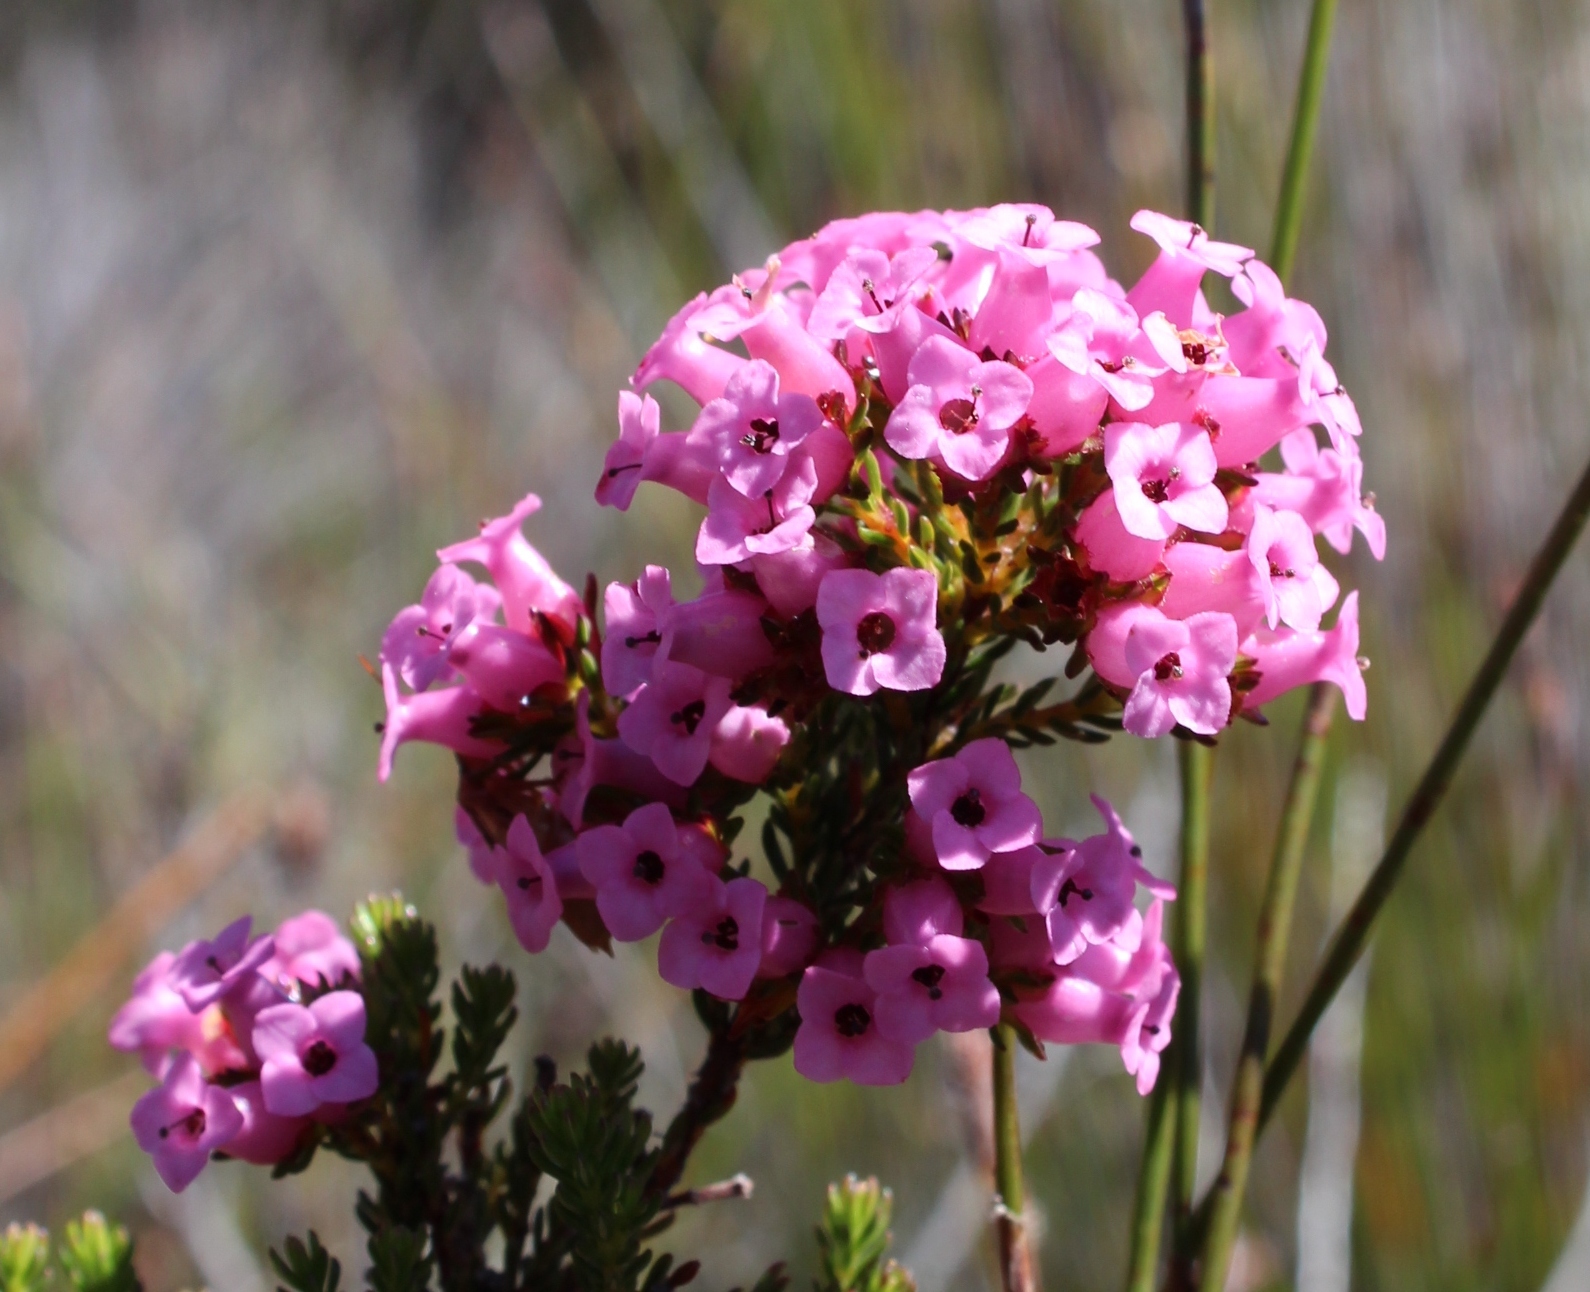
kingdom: Plantae
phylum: Tracheophyta
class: Magnoliopsida
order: Ericales
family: Ericaceae
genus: Erica
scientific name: Erica walkeria
